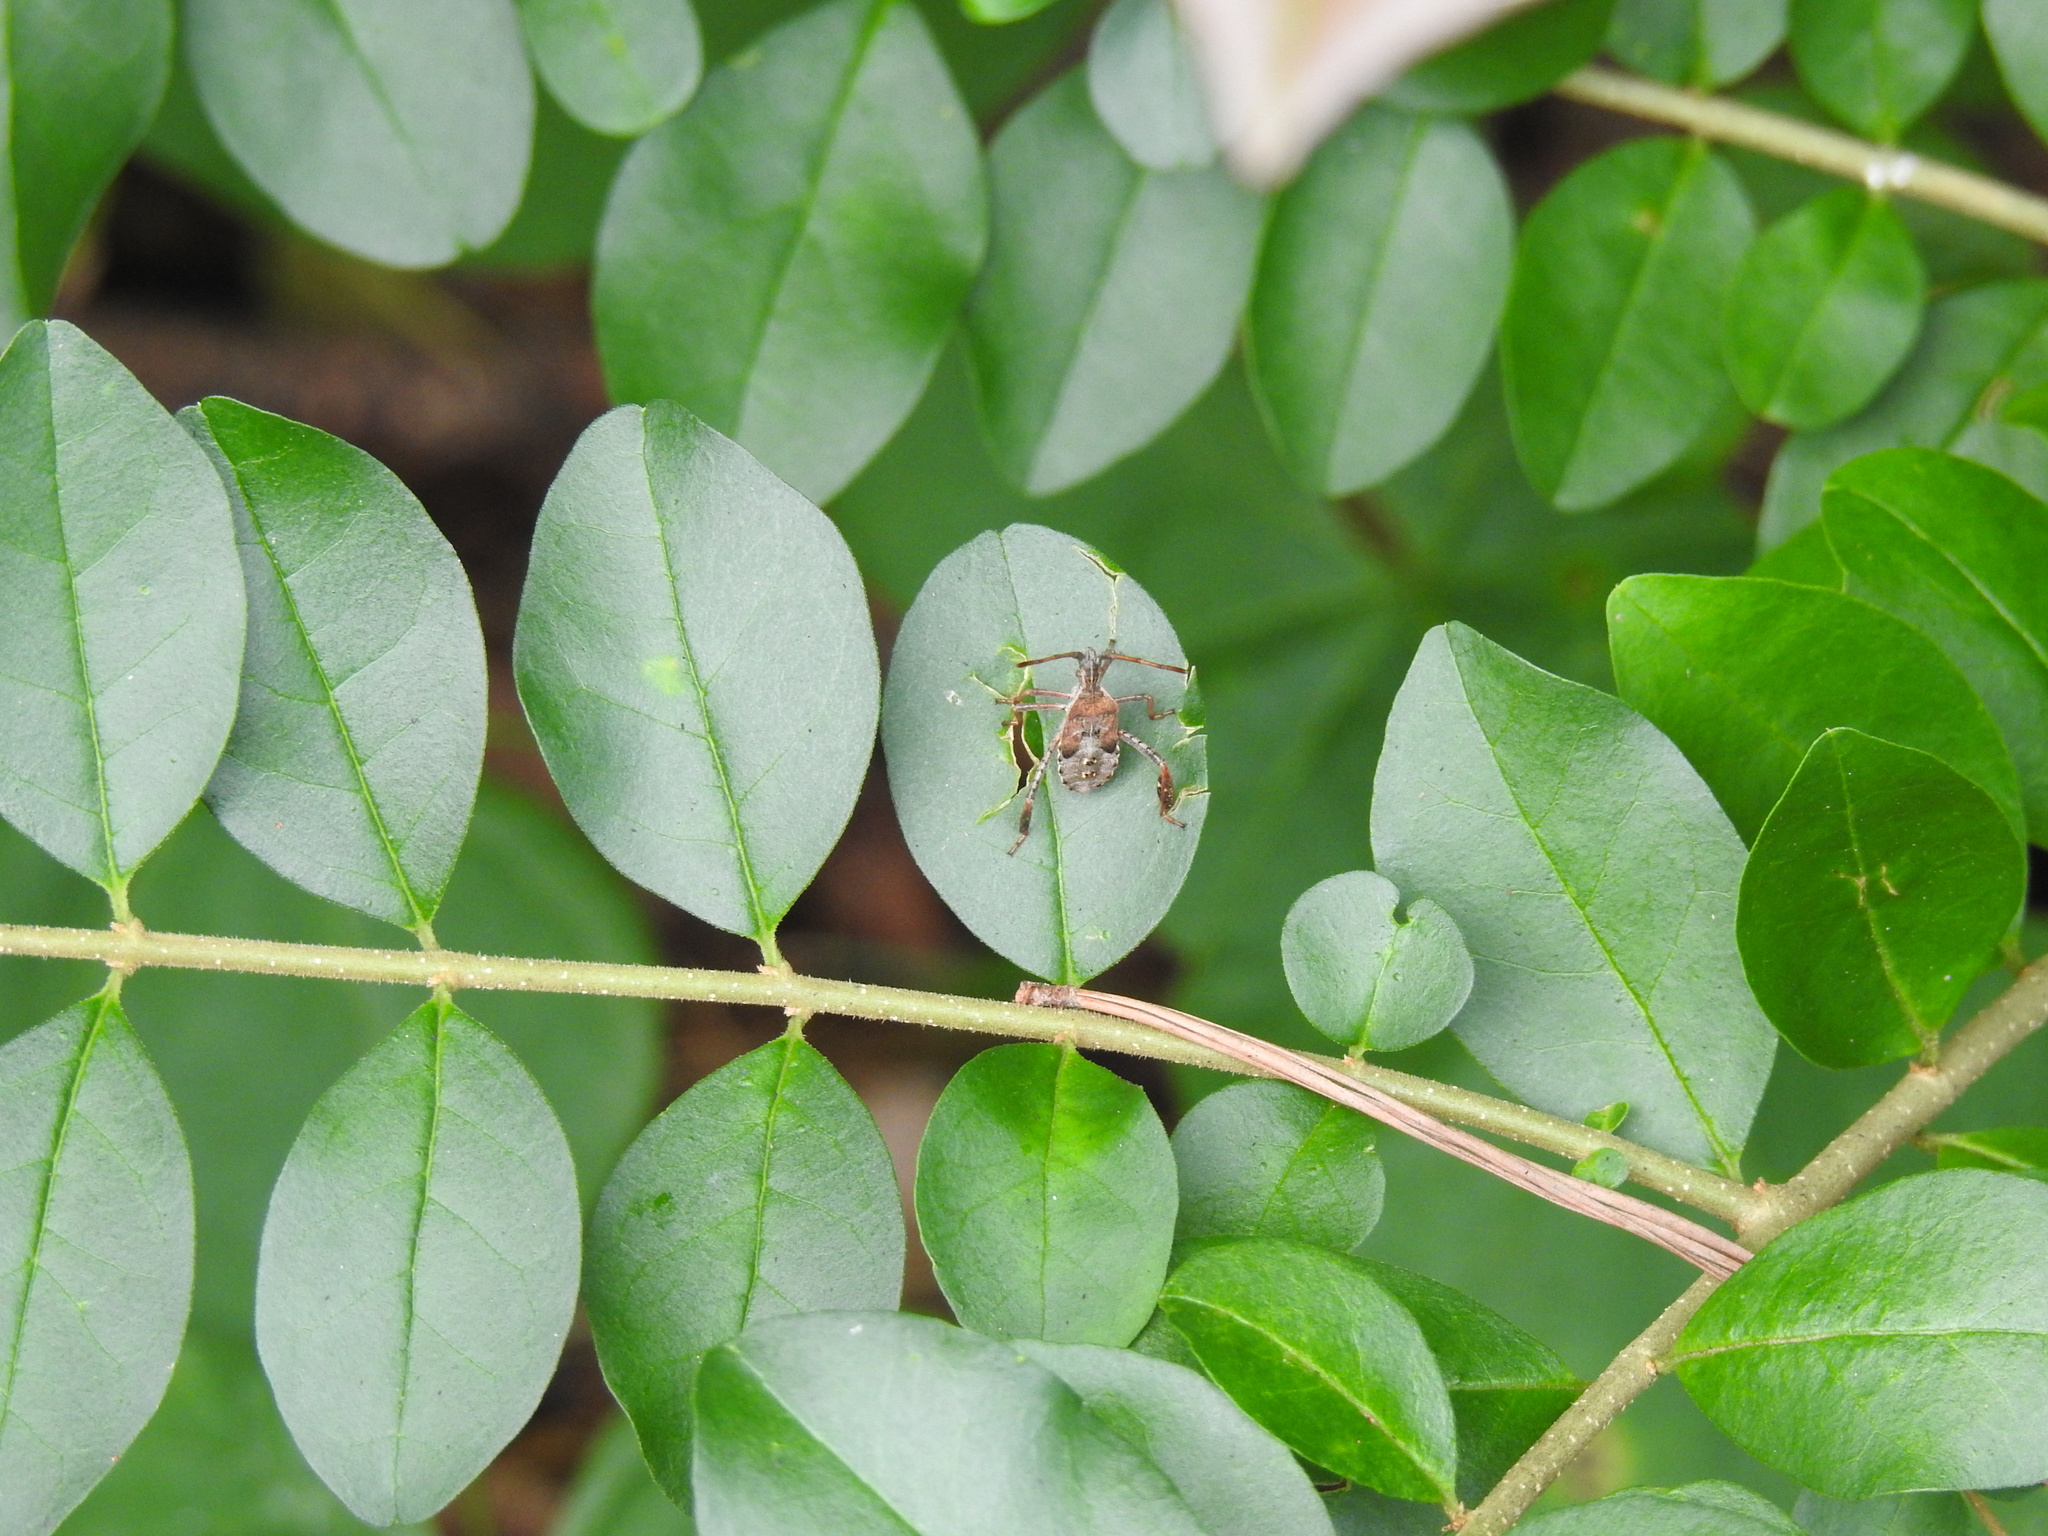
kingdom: Animalia
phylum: Arthropoda
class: Insecta
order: Hemiptera
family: Coreidae
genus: Leptoglossus
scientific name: Leptoglossus corculus
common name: Southern pine seed bug
